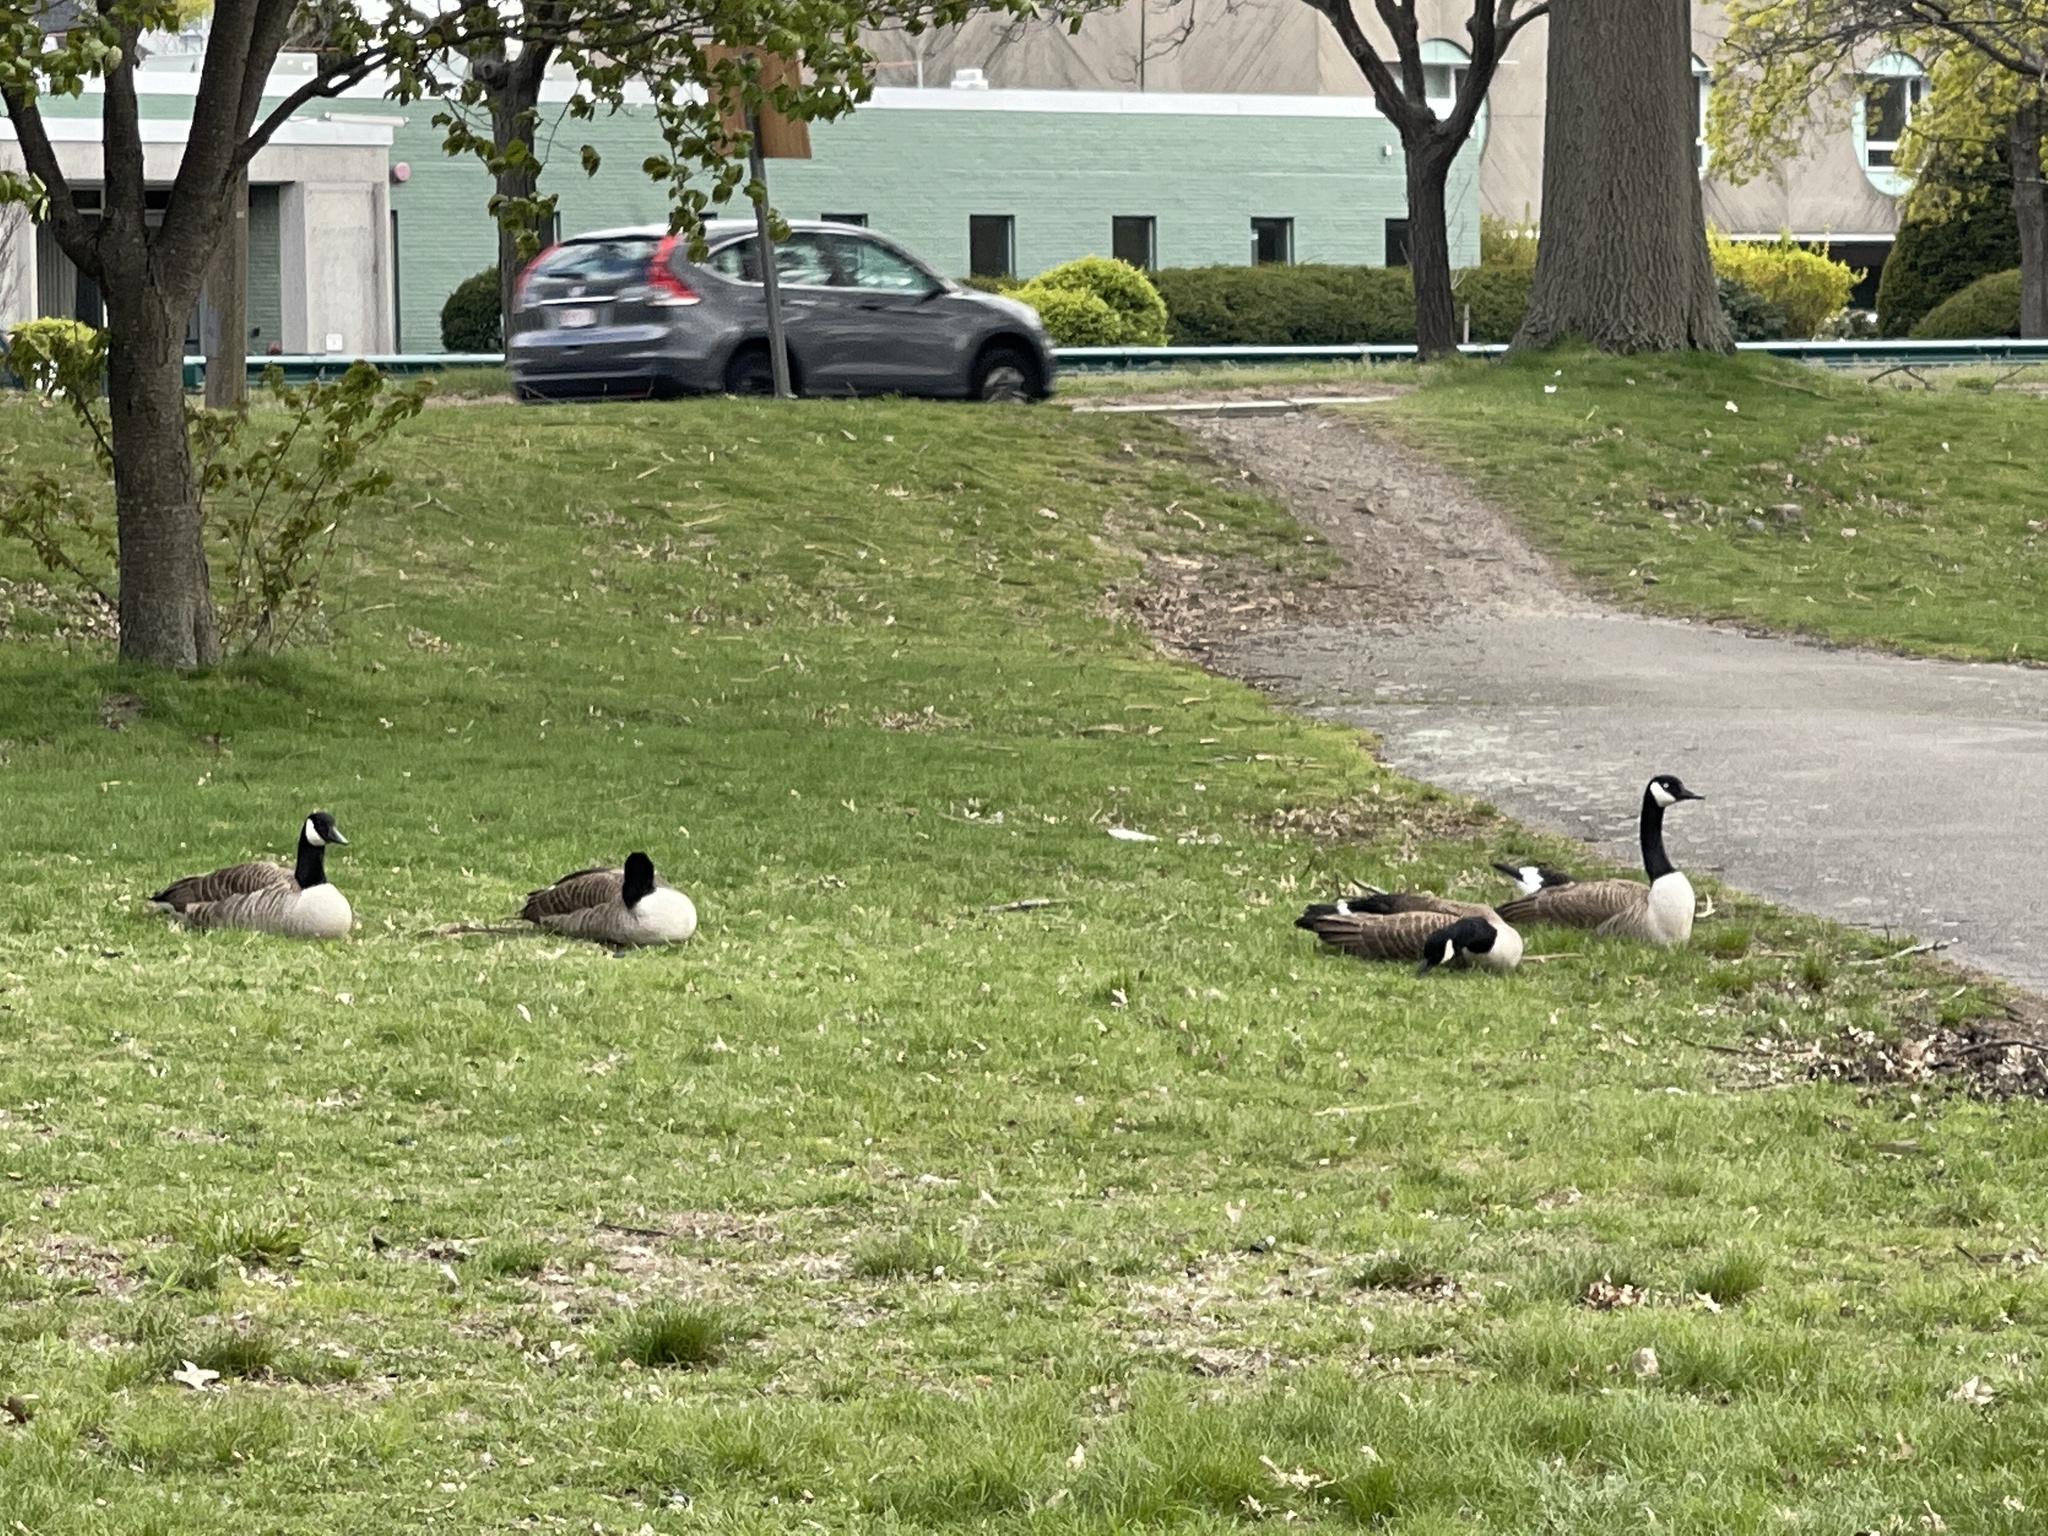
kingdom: Animalia
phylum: Chordata
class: Aves
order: Anseriformes
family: Anatidae
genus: Branta
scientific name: Branta canadensis
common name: Canada goose
